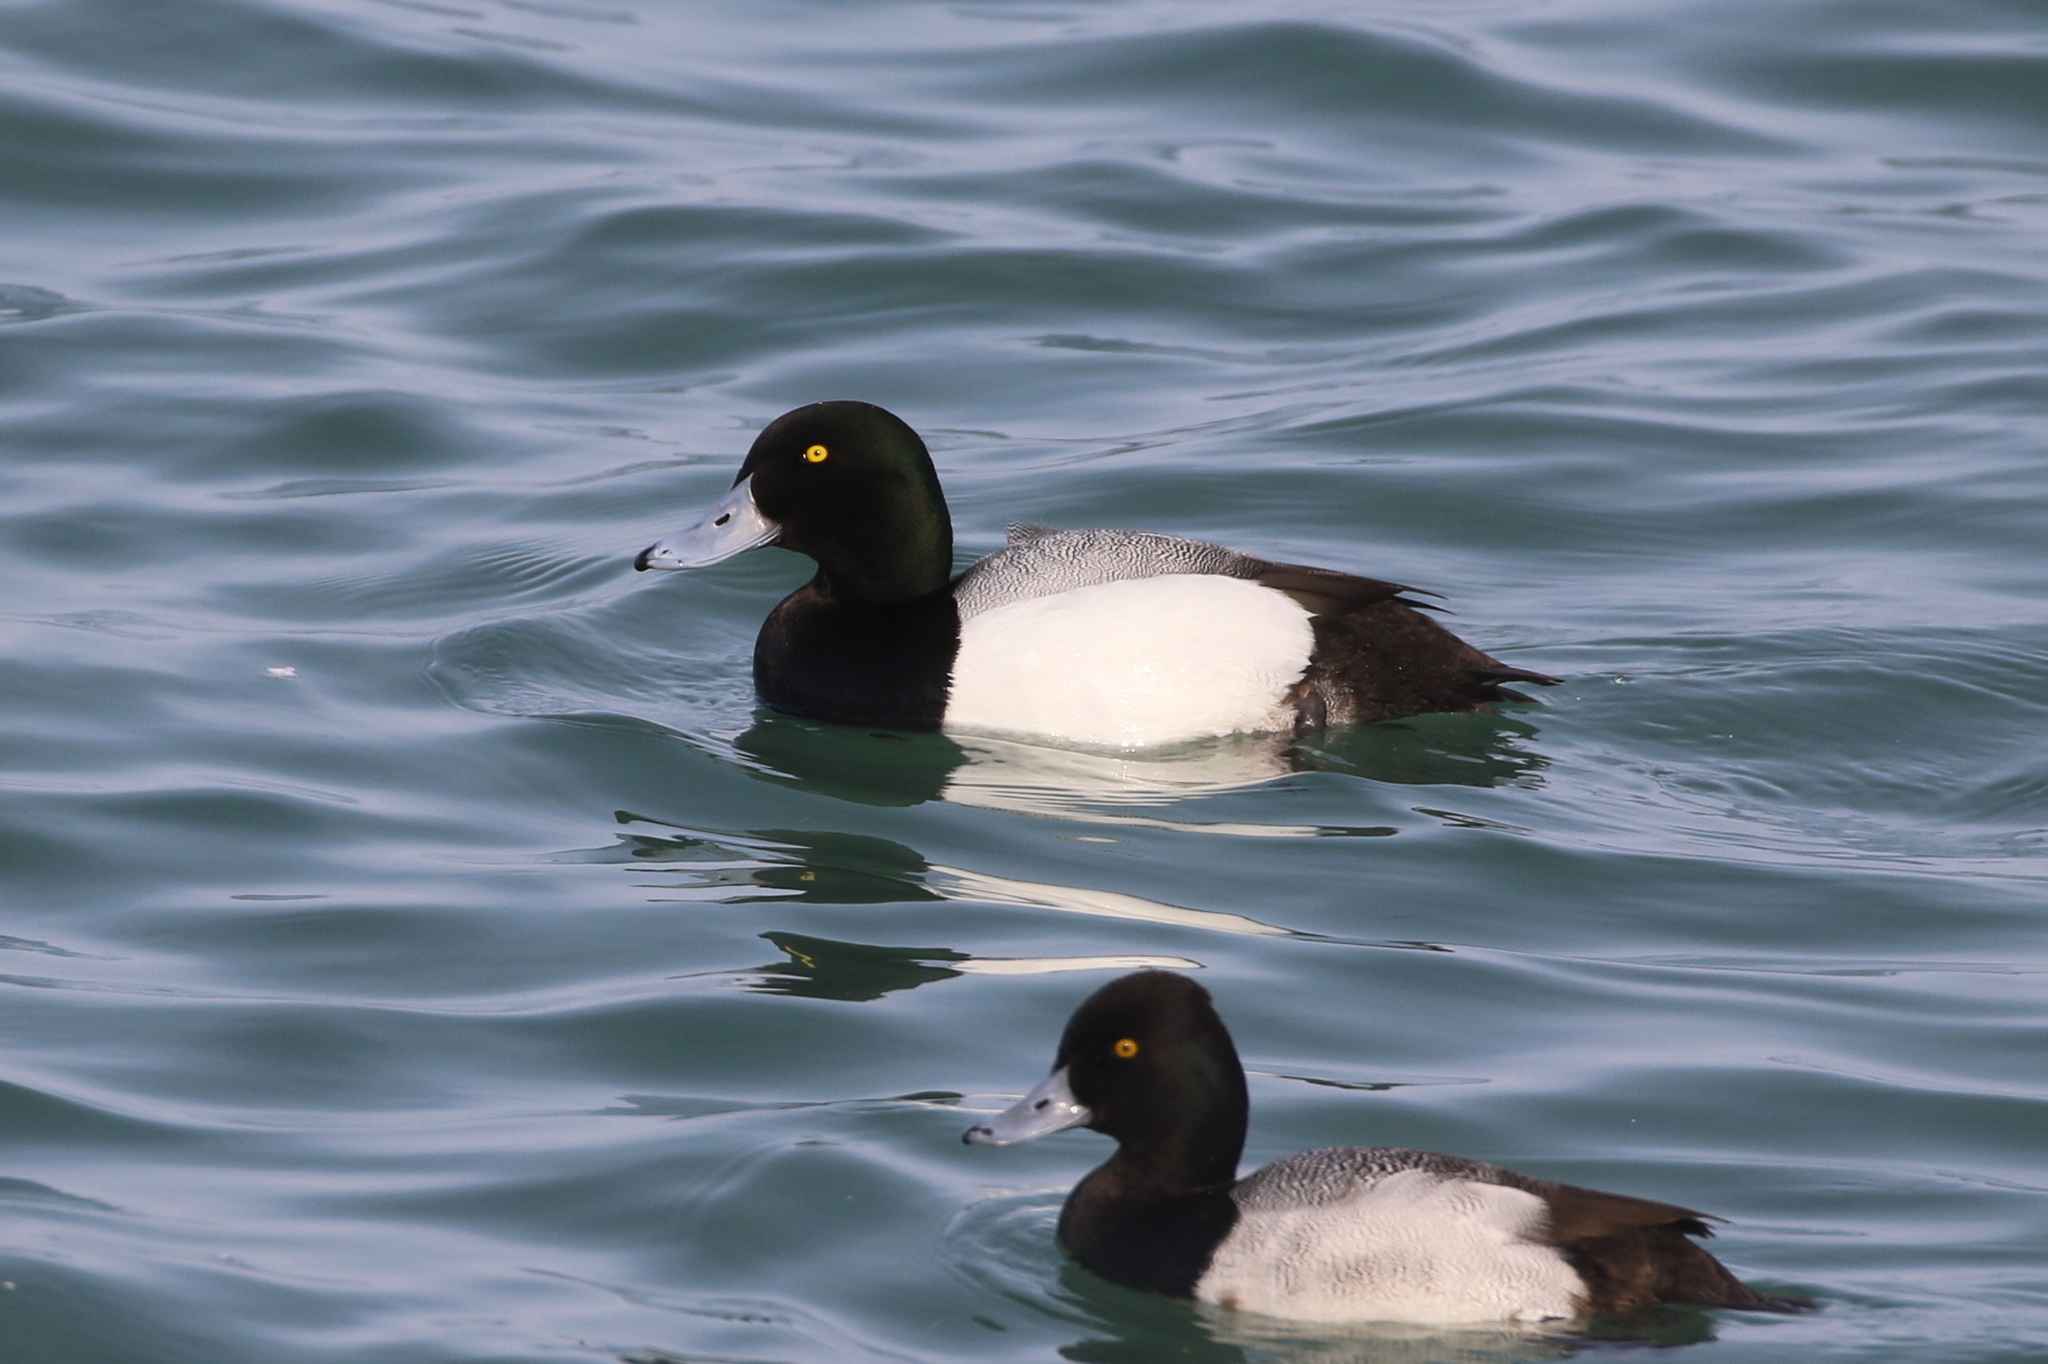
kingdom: Animalia
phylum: Chordata
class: Aves
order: Anseriformes
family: Anatidae
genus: Aythya
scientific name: Aythya marila
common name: Greater scaup
